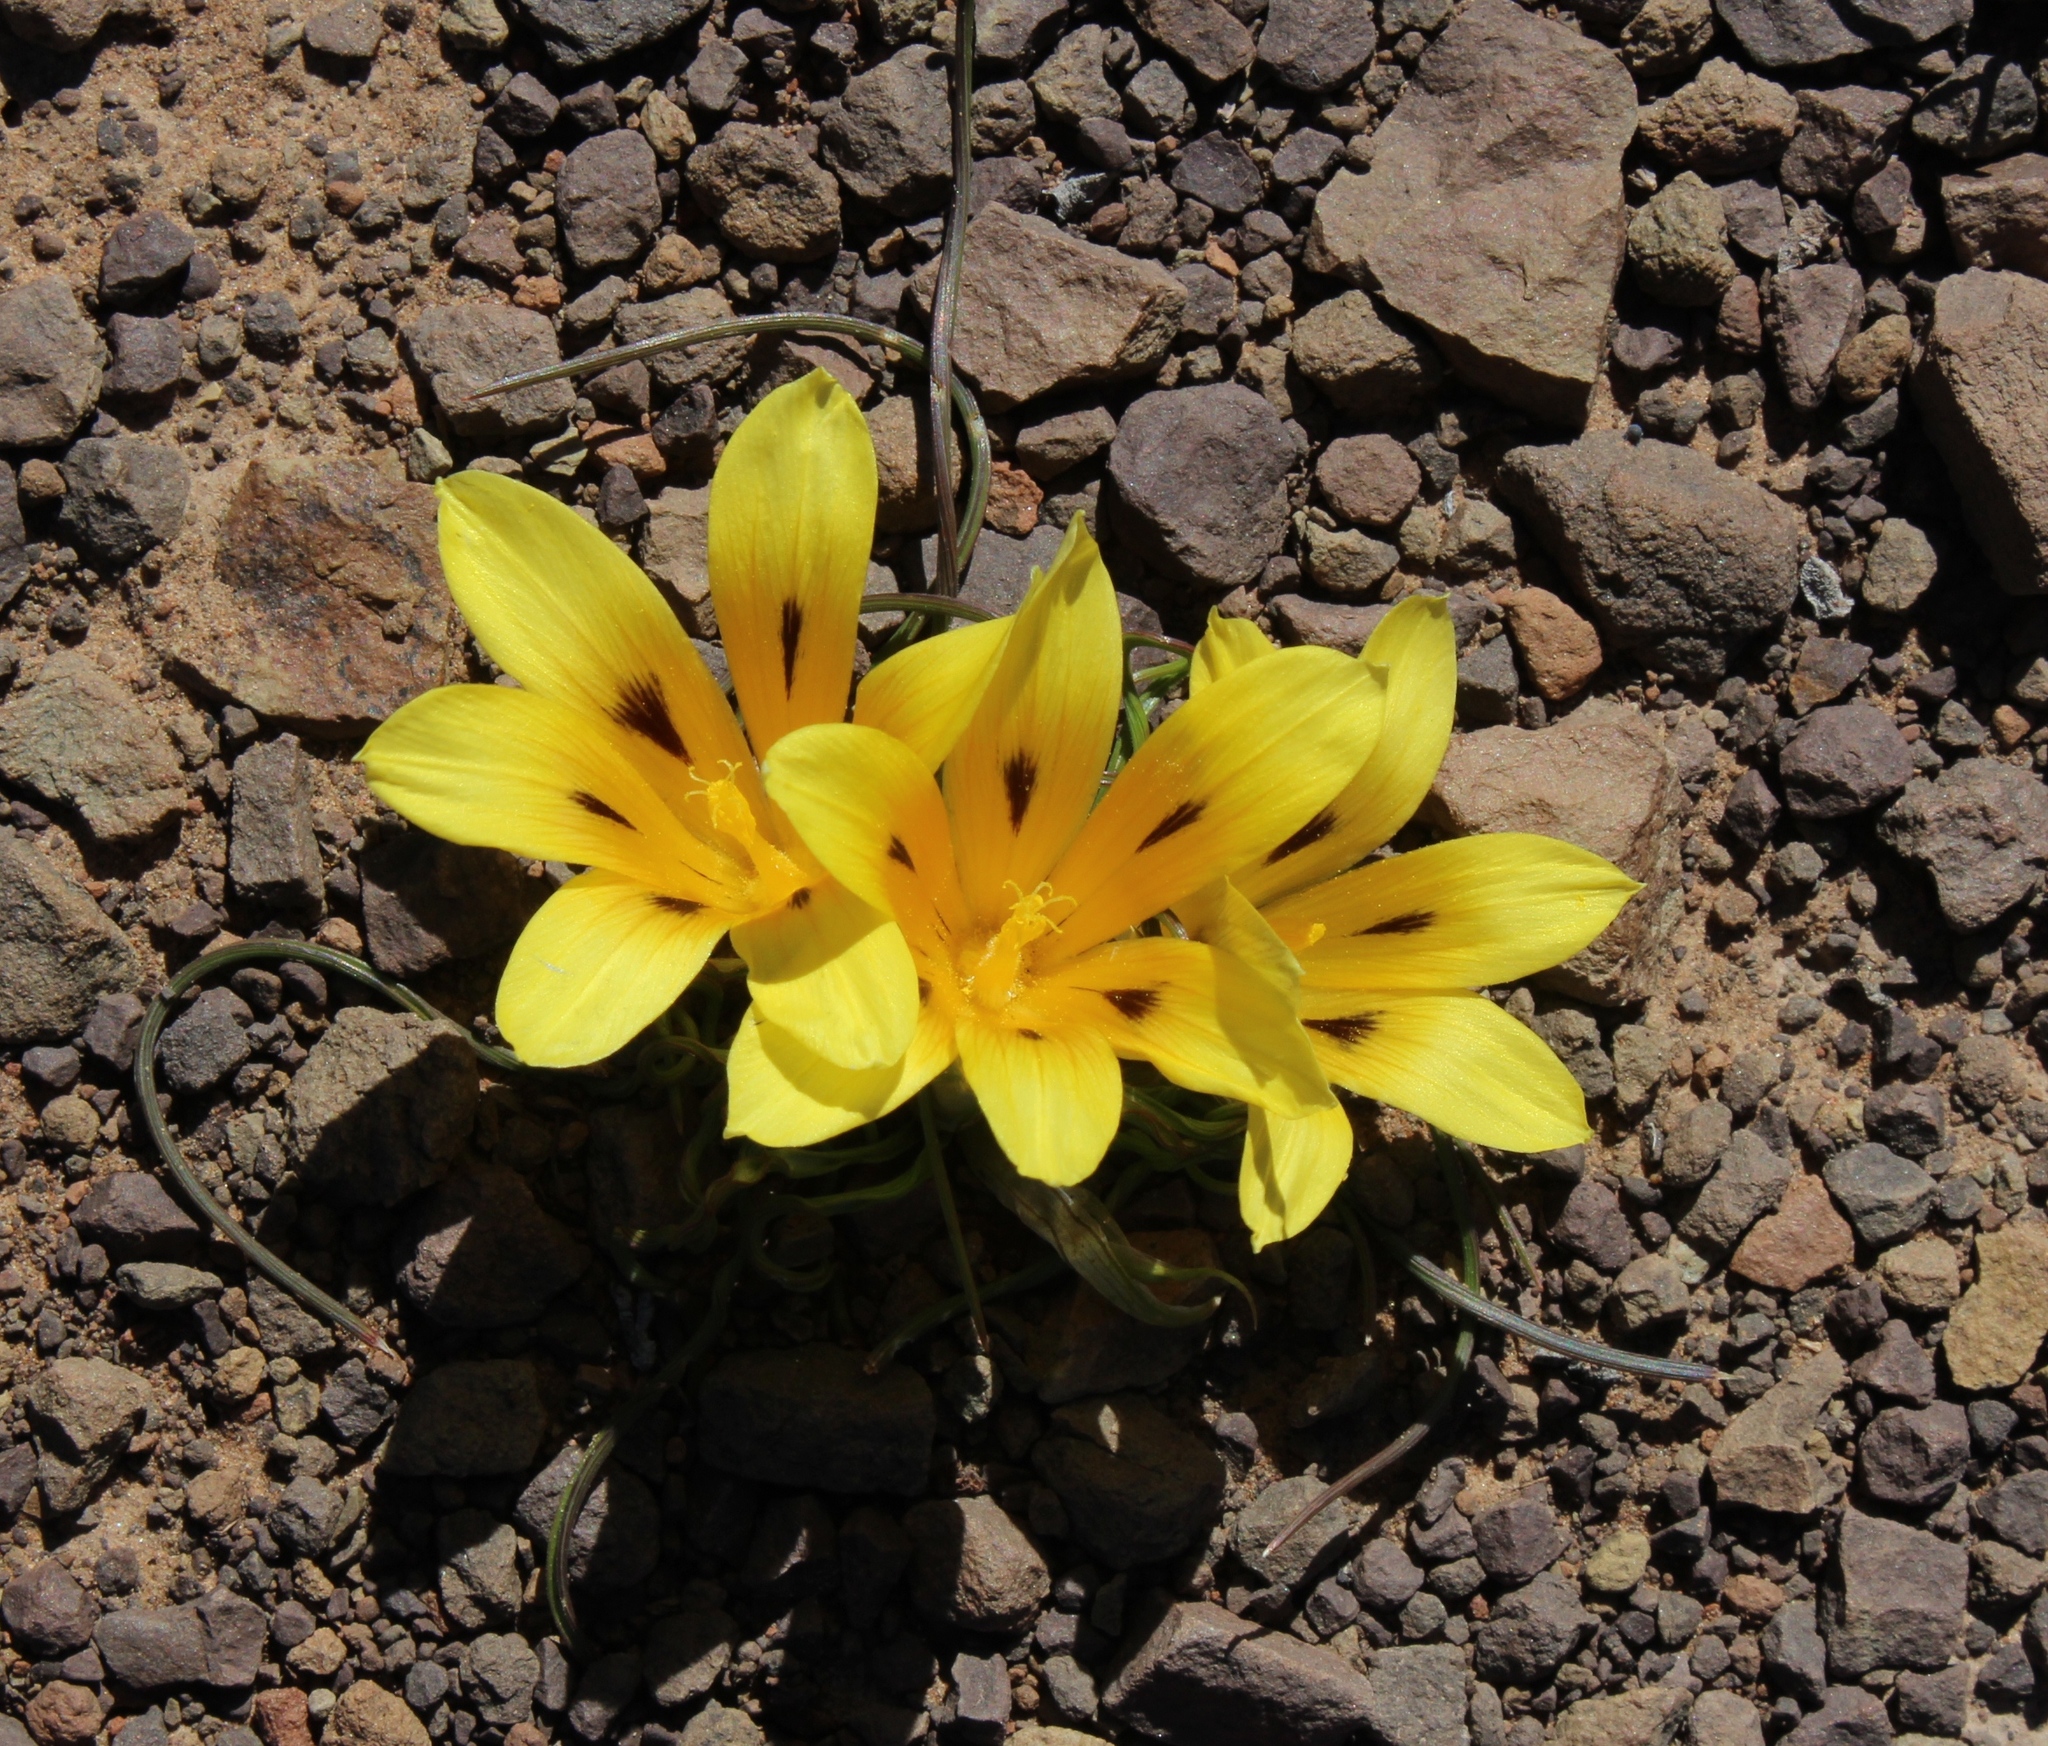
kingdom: Plantae
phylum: Tracheophyta
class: Liliopsida
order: Asparagales
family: Iridaceae
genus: Romulea
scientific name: Romulea tortuosa
